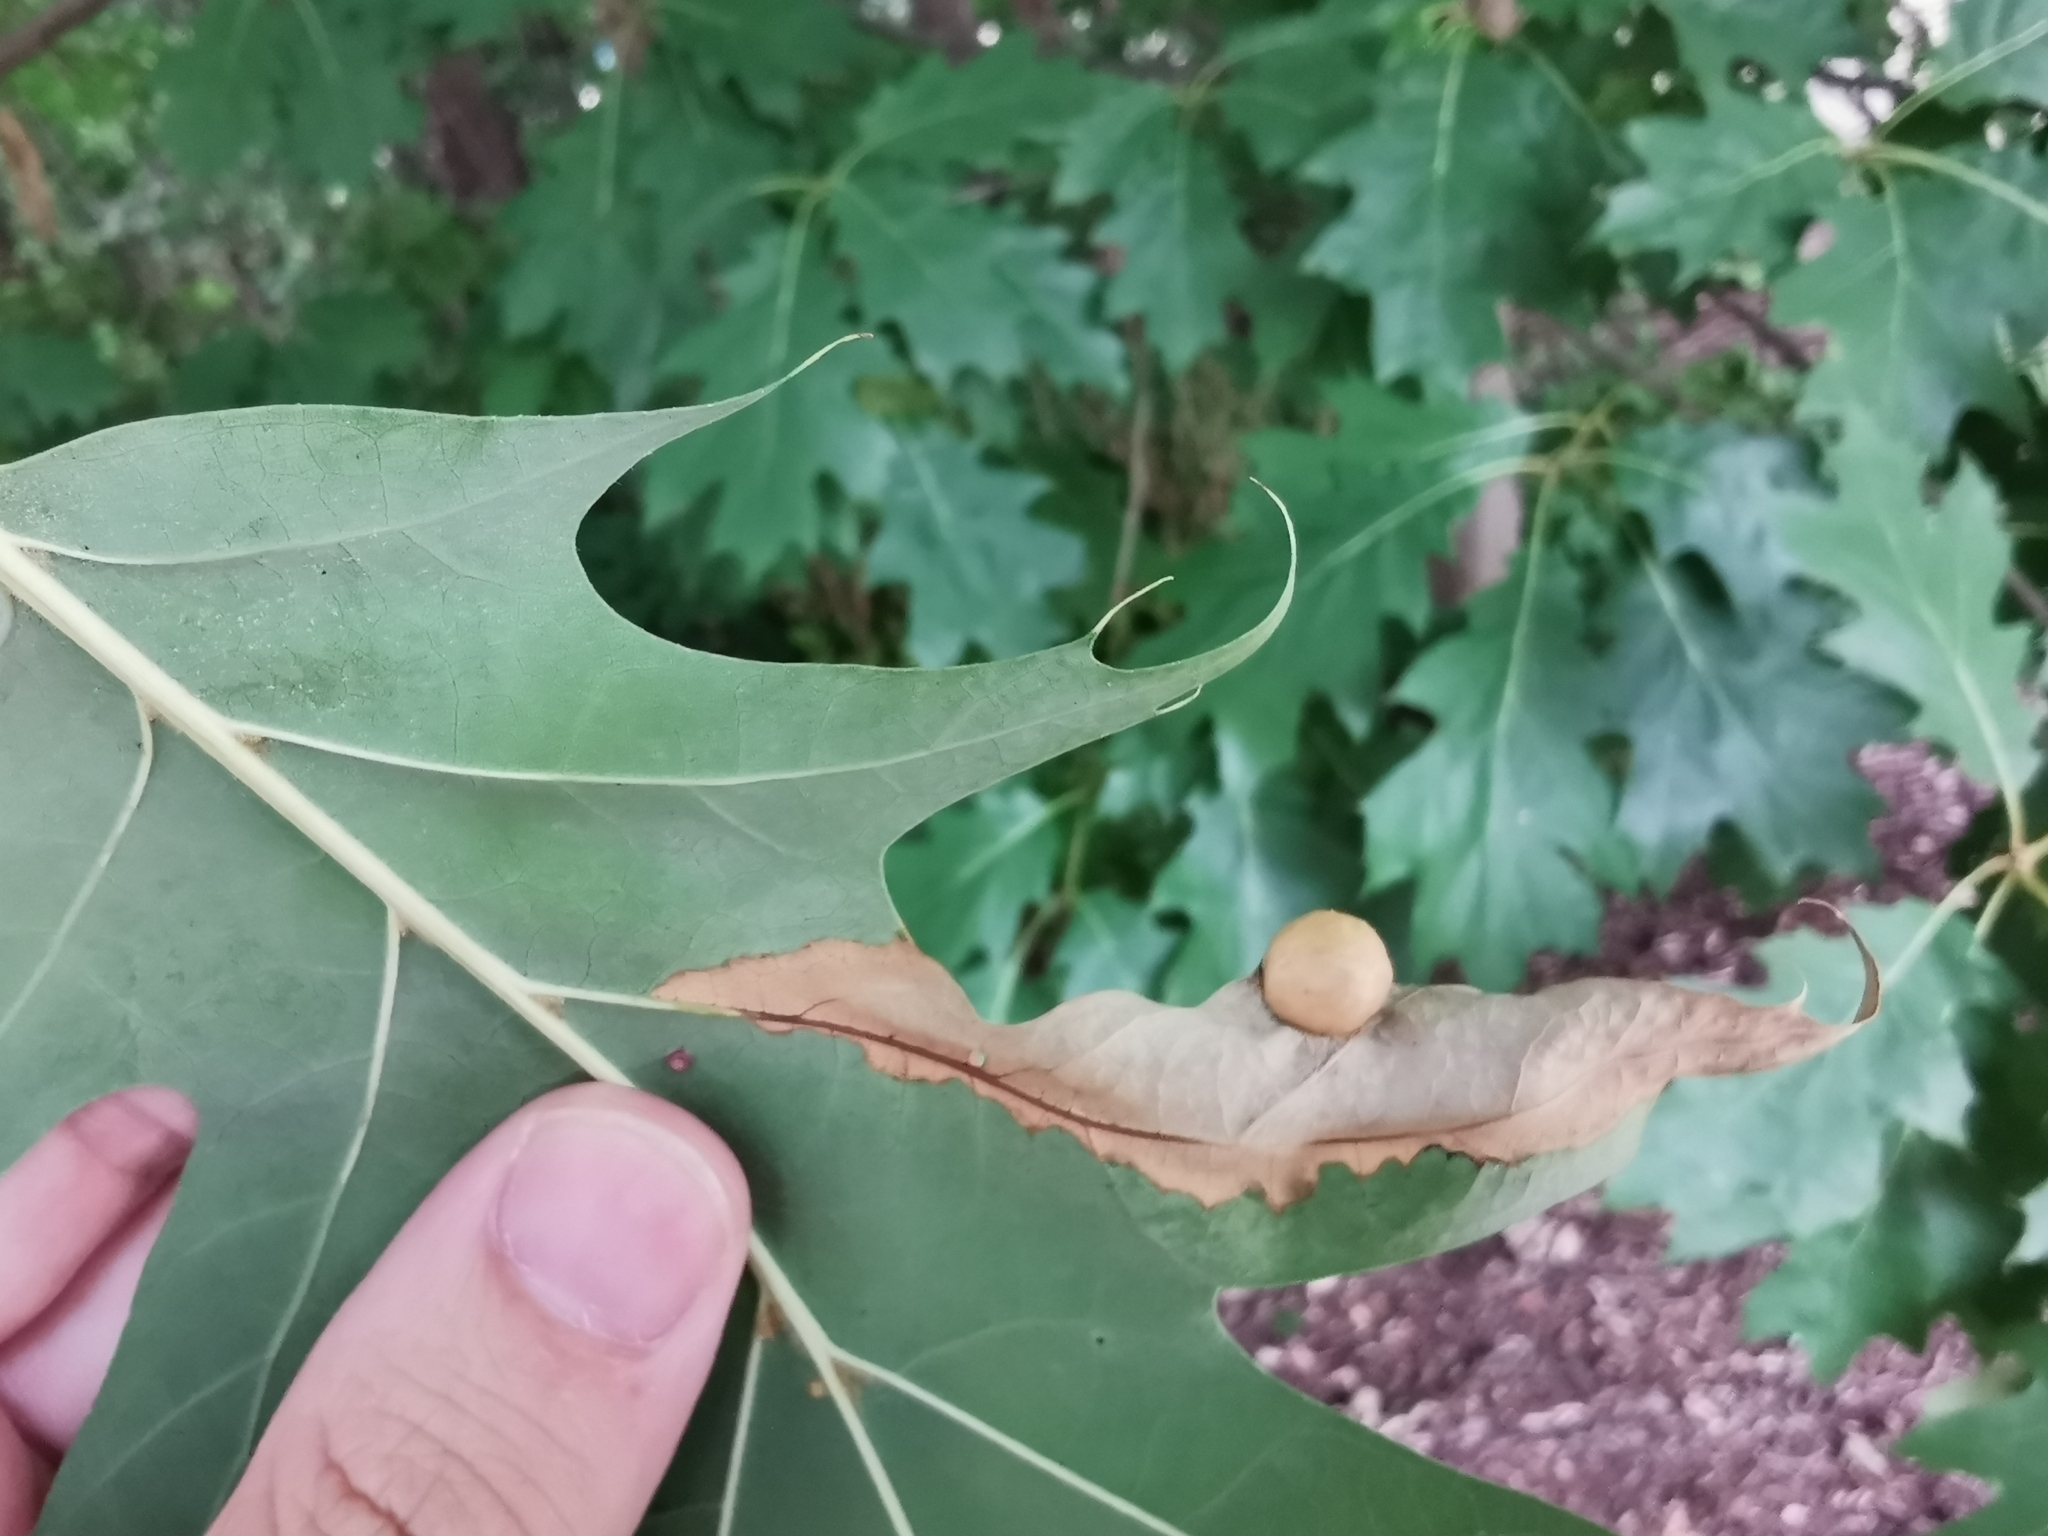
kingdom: Animalia
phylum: Arthropoda
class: Insecta
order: Hymenoptera
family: Cynipidae
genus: Amphibolips
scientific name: Amphibolips
